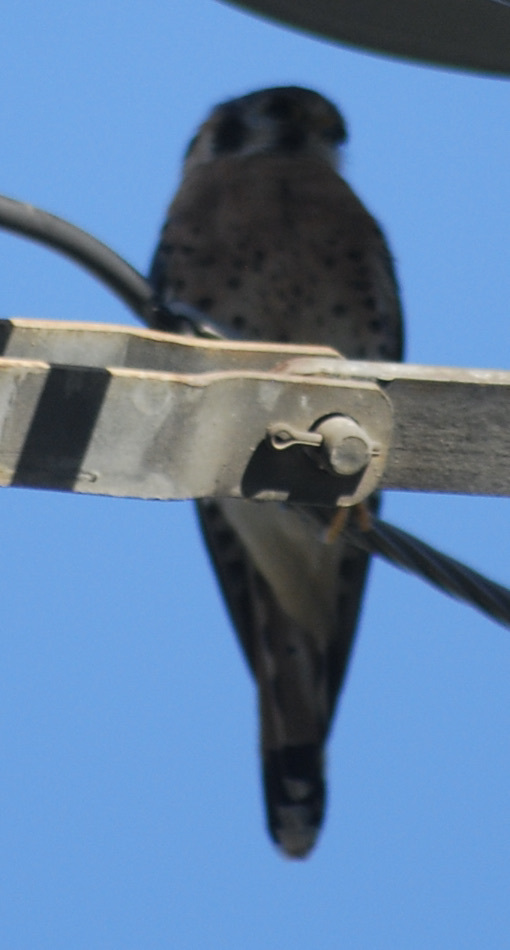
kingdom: Animalia
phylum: Chordata
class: Aves
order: Falconiformes
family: Falconidae
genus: Falco
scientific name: Falco sparverius
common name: American kestrel
